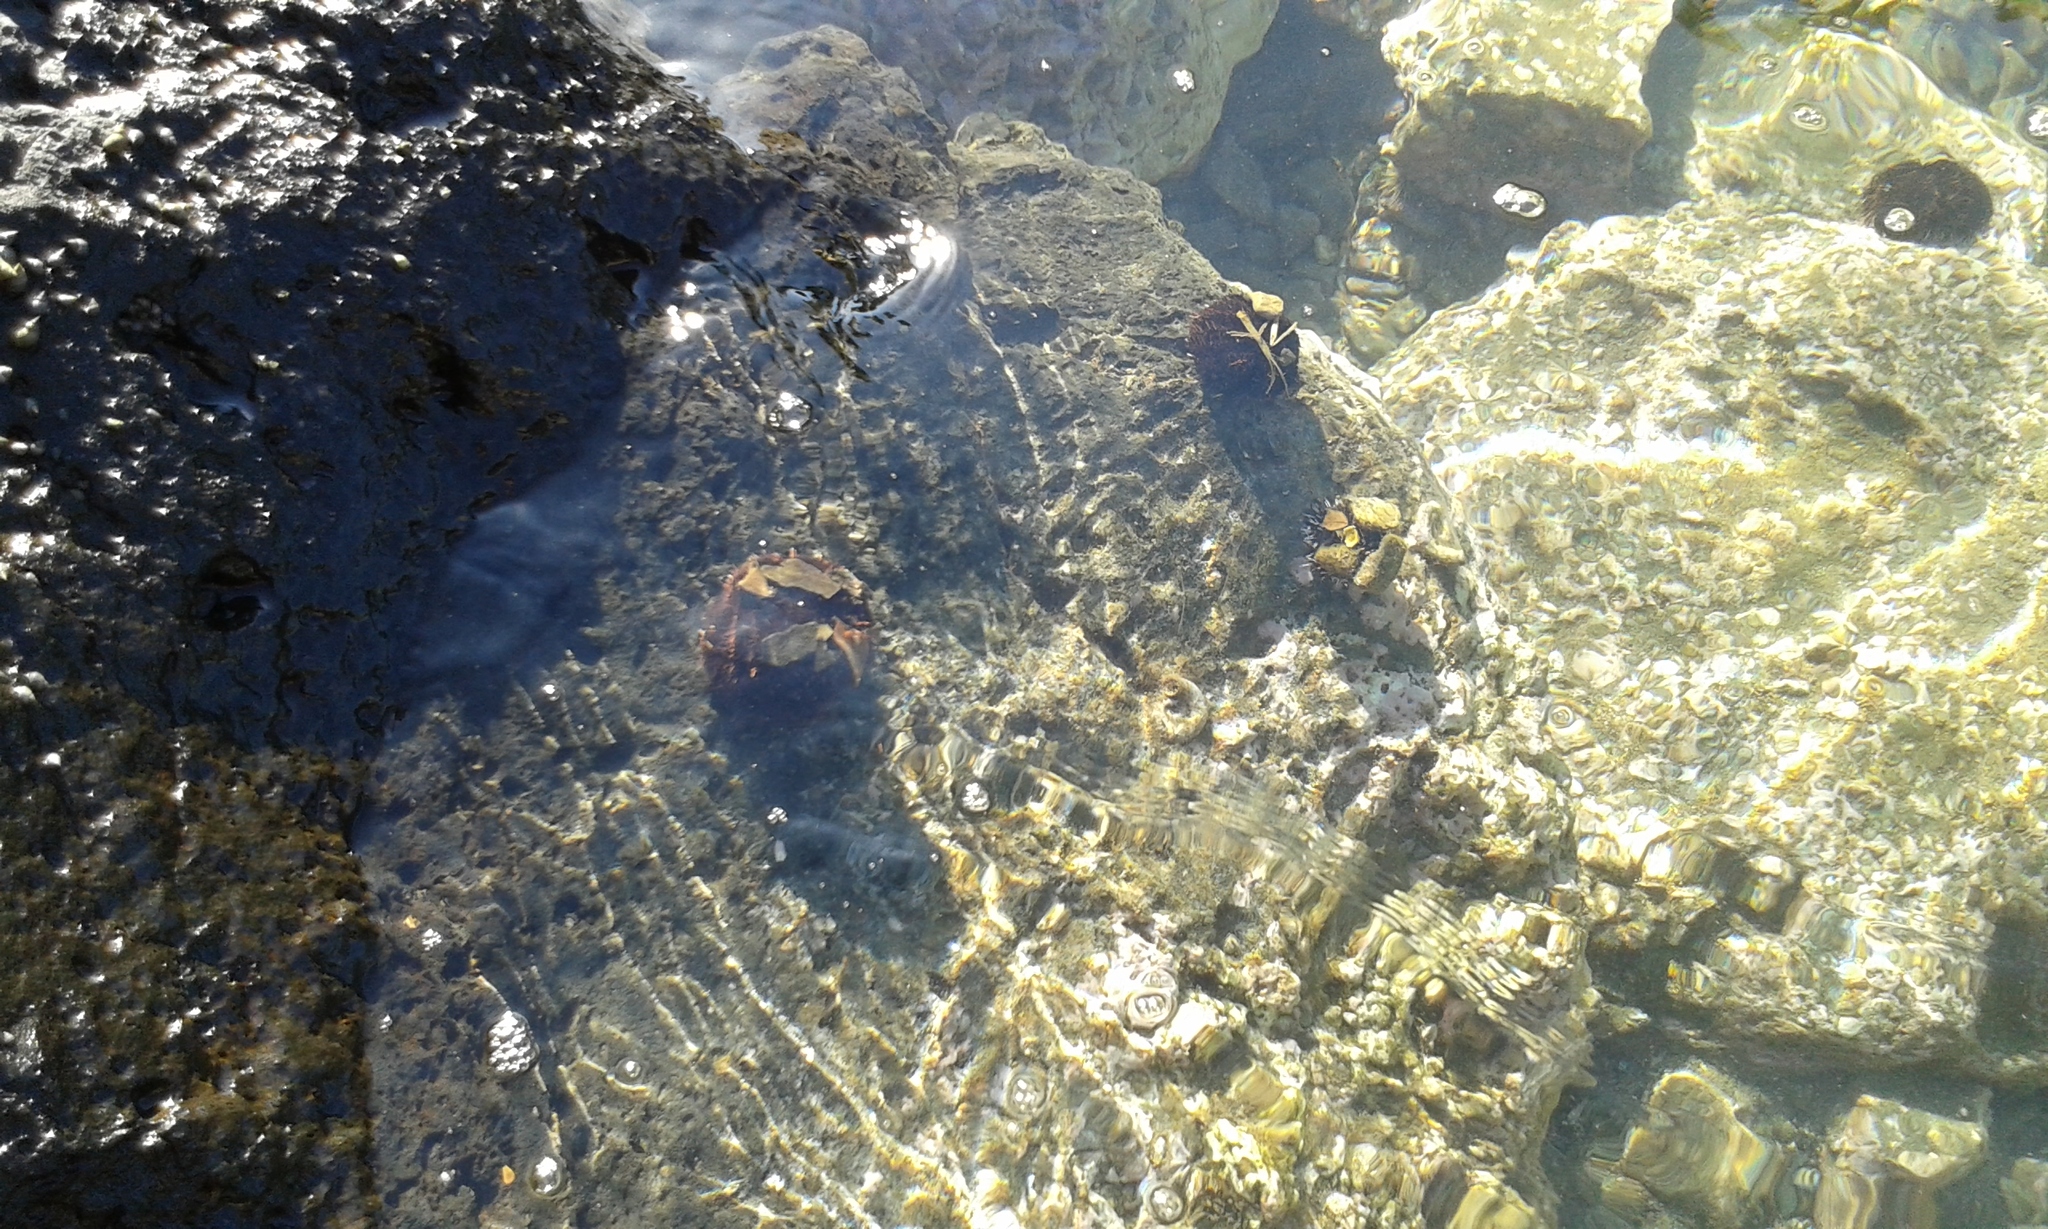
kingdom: Animalia
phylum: Echinodermata
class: Echinoidea
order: Camarodonta
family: Toxopneustidae
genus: Tripneustes
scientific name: Tripneustes gratilla
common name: Bischofsmützenseeigel
